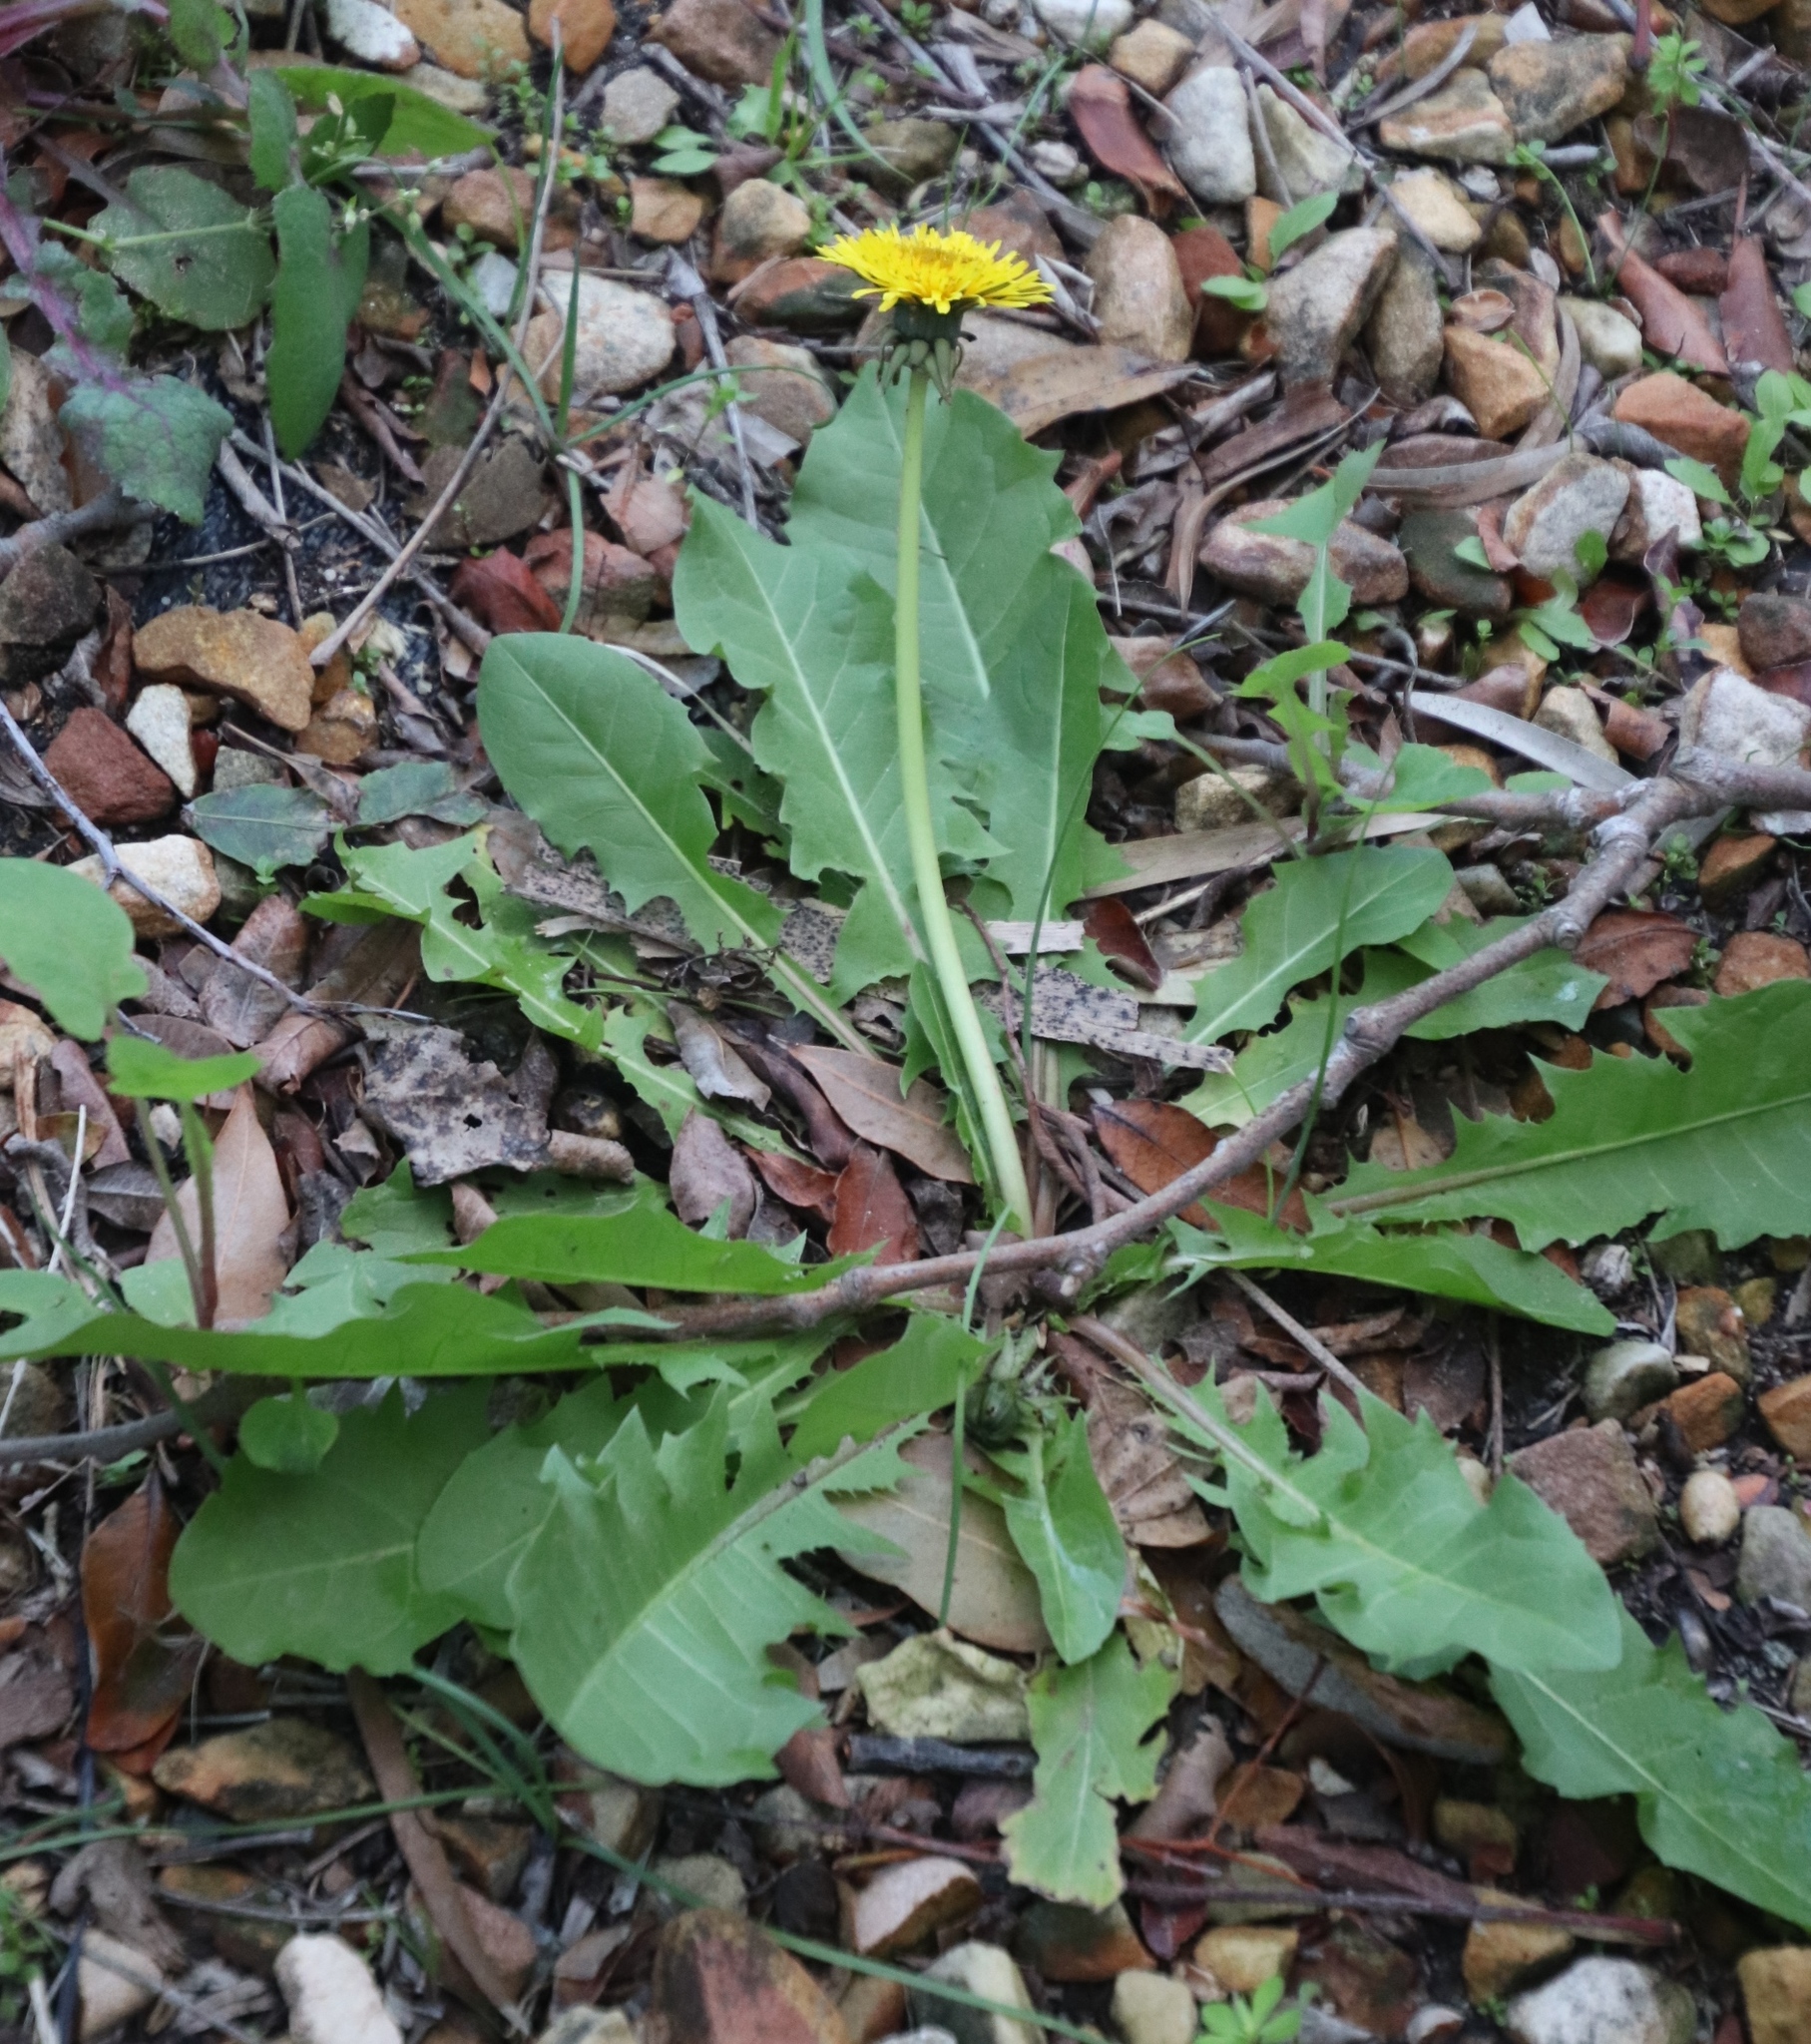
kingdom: Plantae
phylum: Tracheophyta
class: Magnoliopsida
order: Asterales
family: Asteraceae
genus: Taraxacum
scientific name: Taraxacum officinale
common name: Common dandelion
